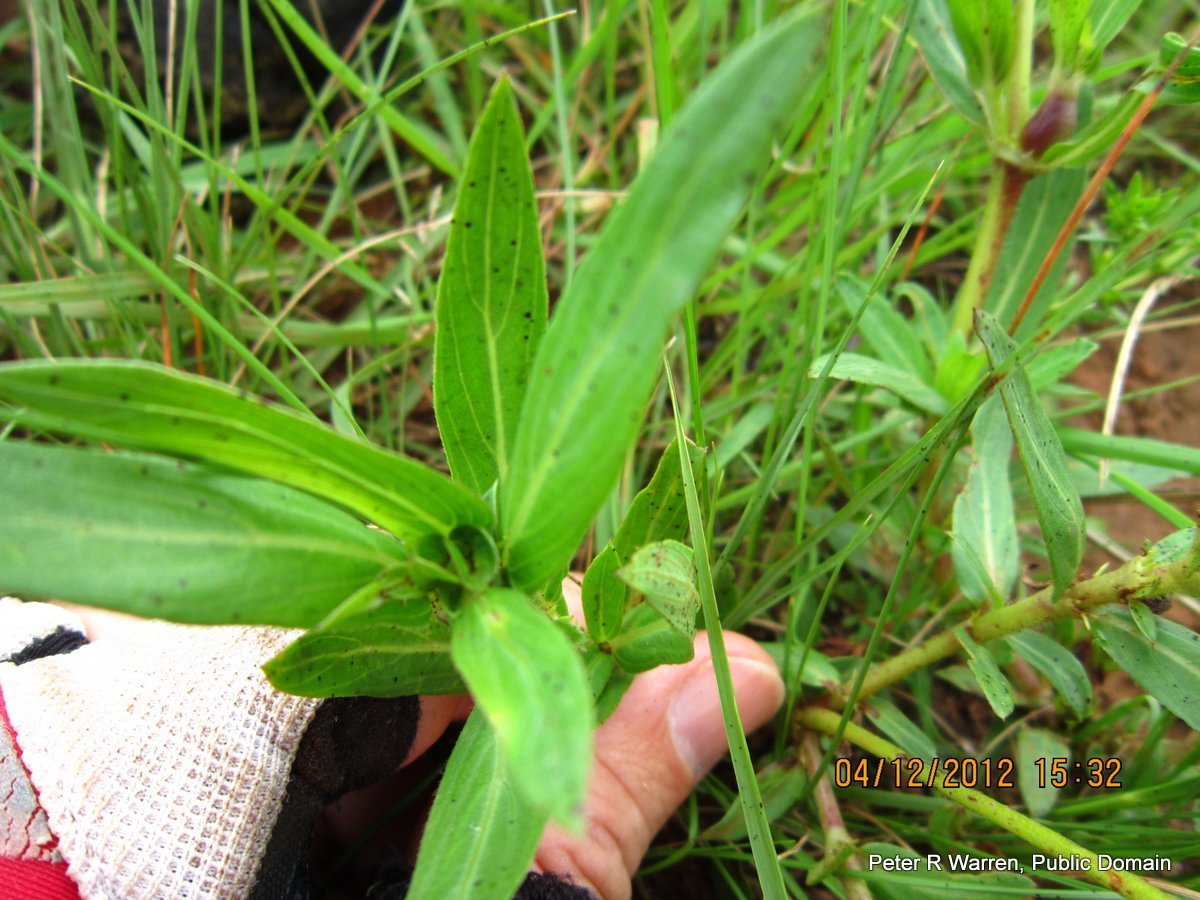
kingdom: Plantae
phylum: Tracheophyta
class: Magnoliopsida
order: Gentianales
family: Rubiaceae
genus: Pentanisia
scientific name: Pentanisia angustifolia
